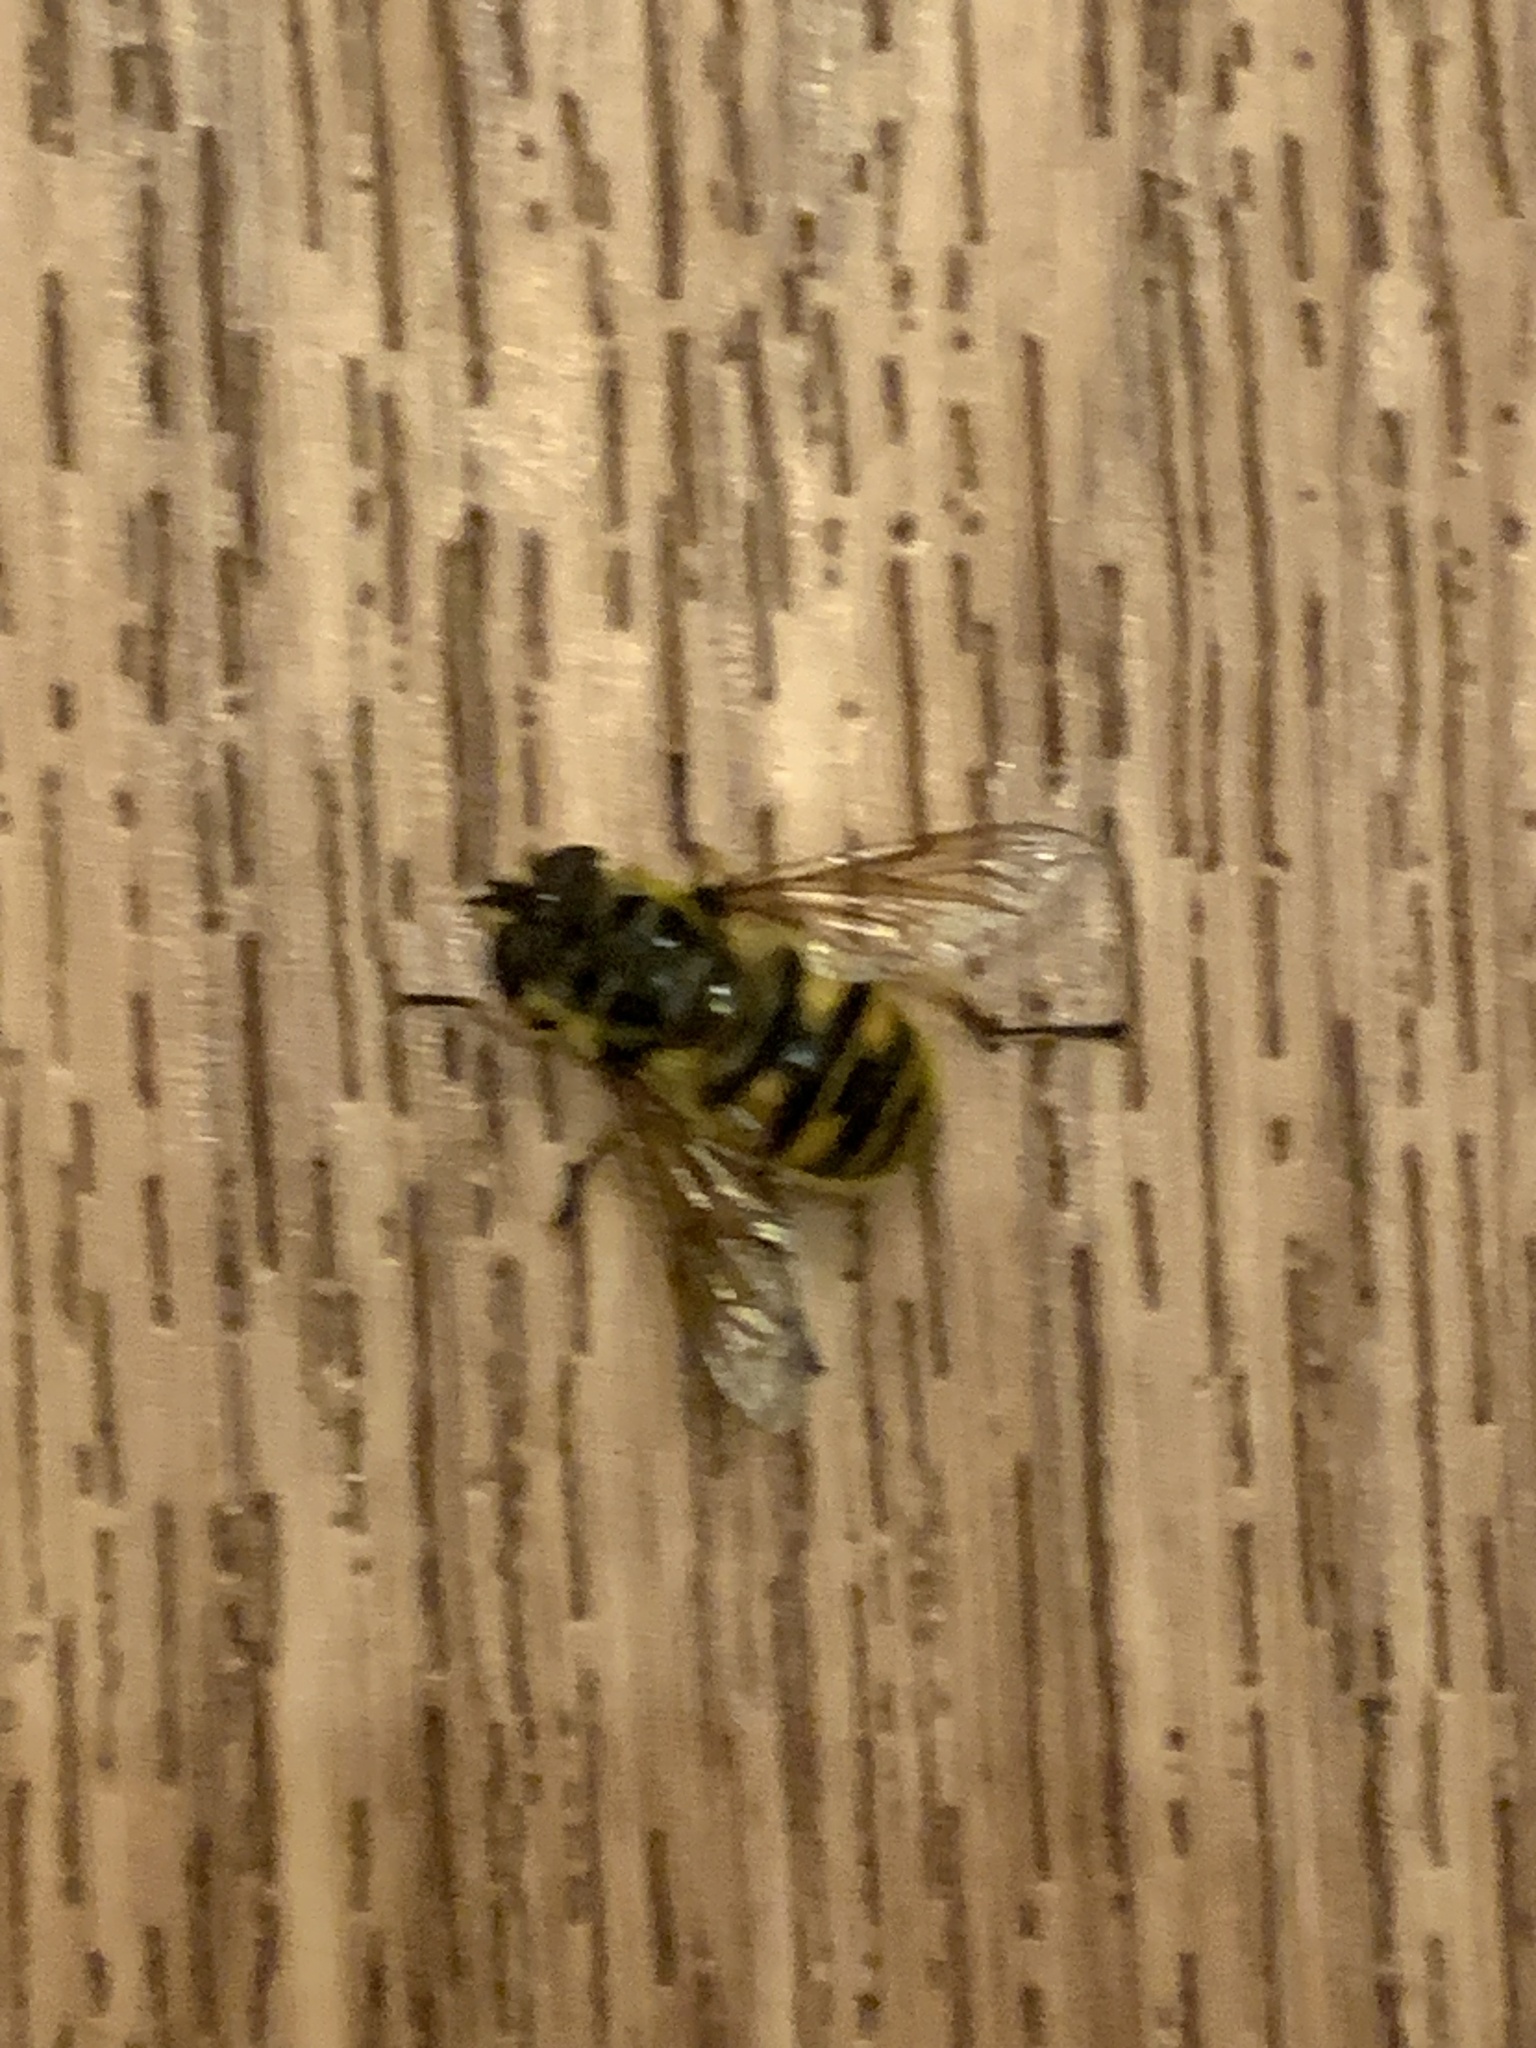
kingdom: Animalia
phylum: Arthropoda
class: Insecta
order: Diptera
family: Syrphidae
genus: Myathropa
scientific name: Myathropa florea
